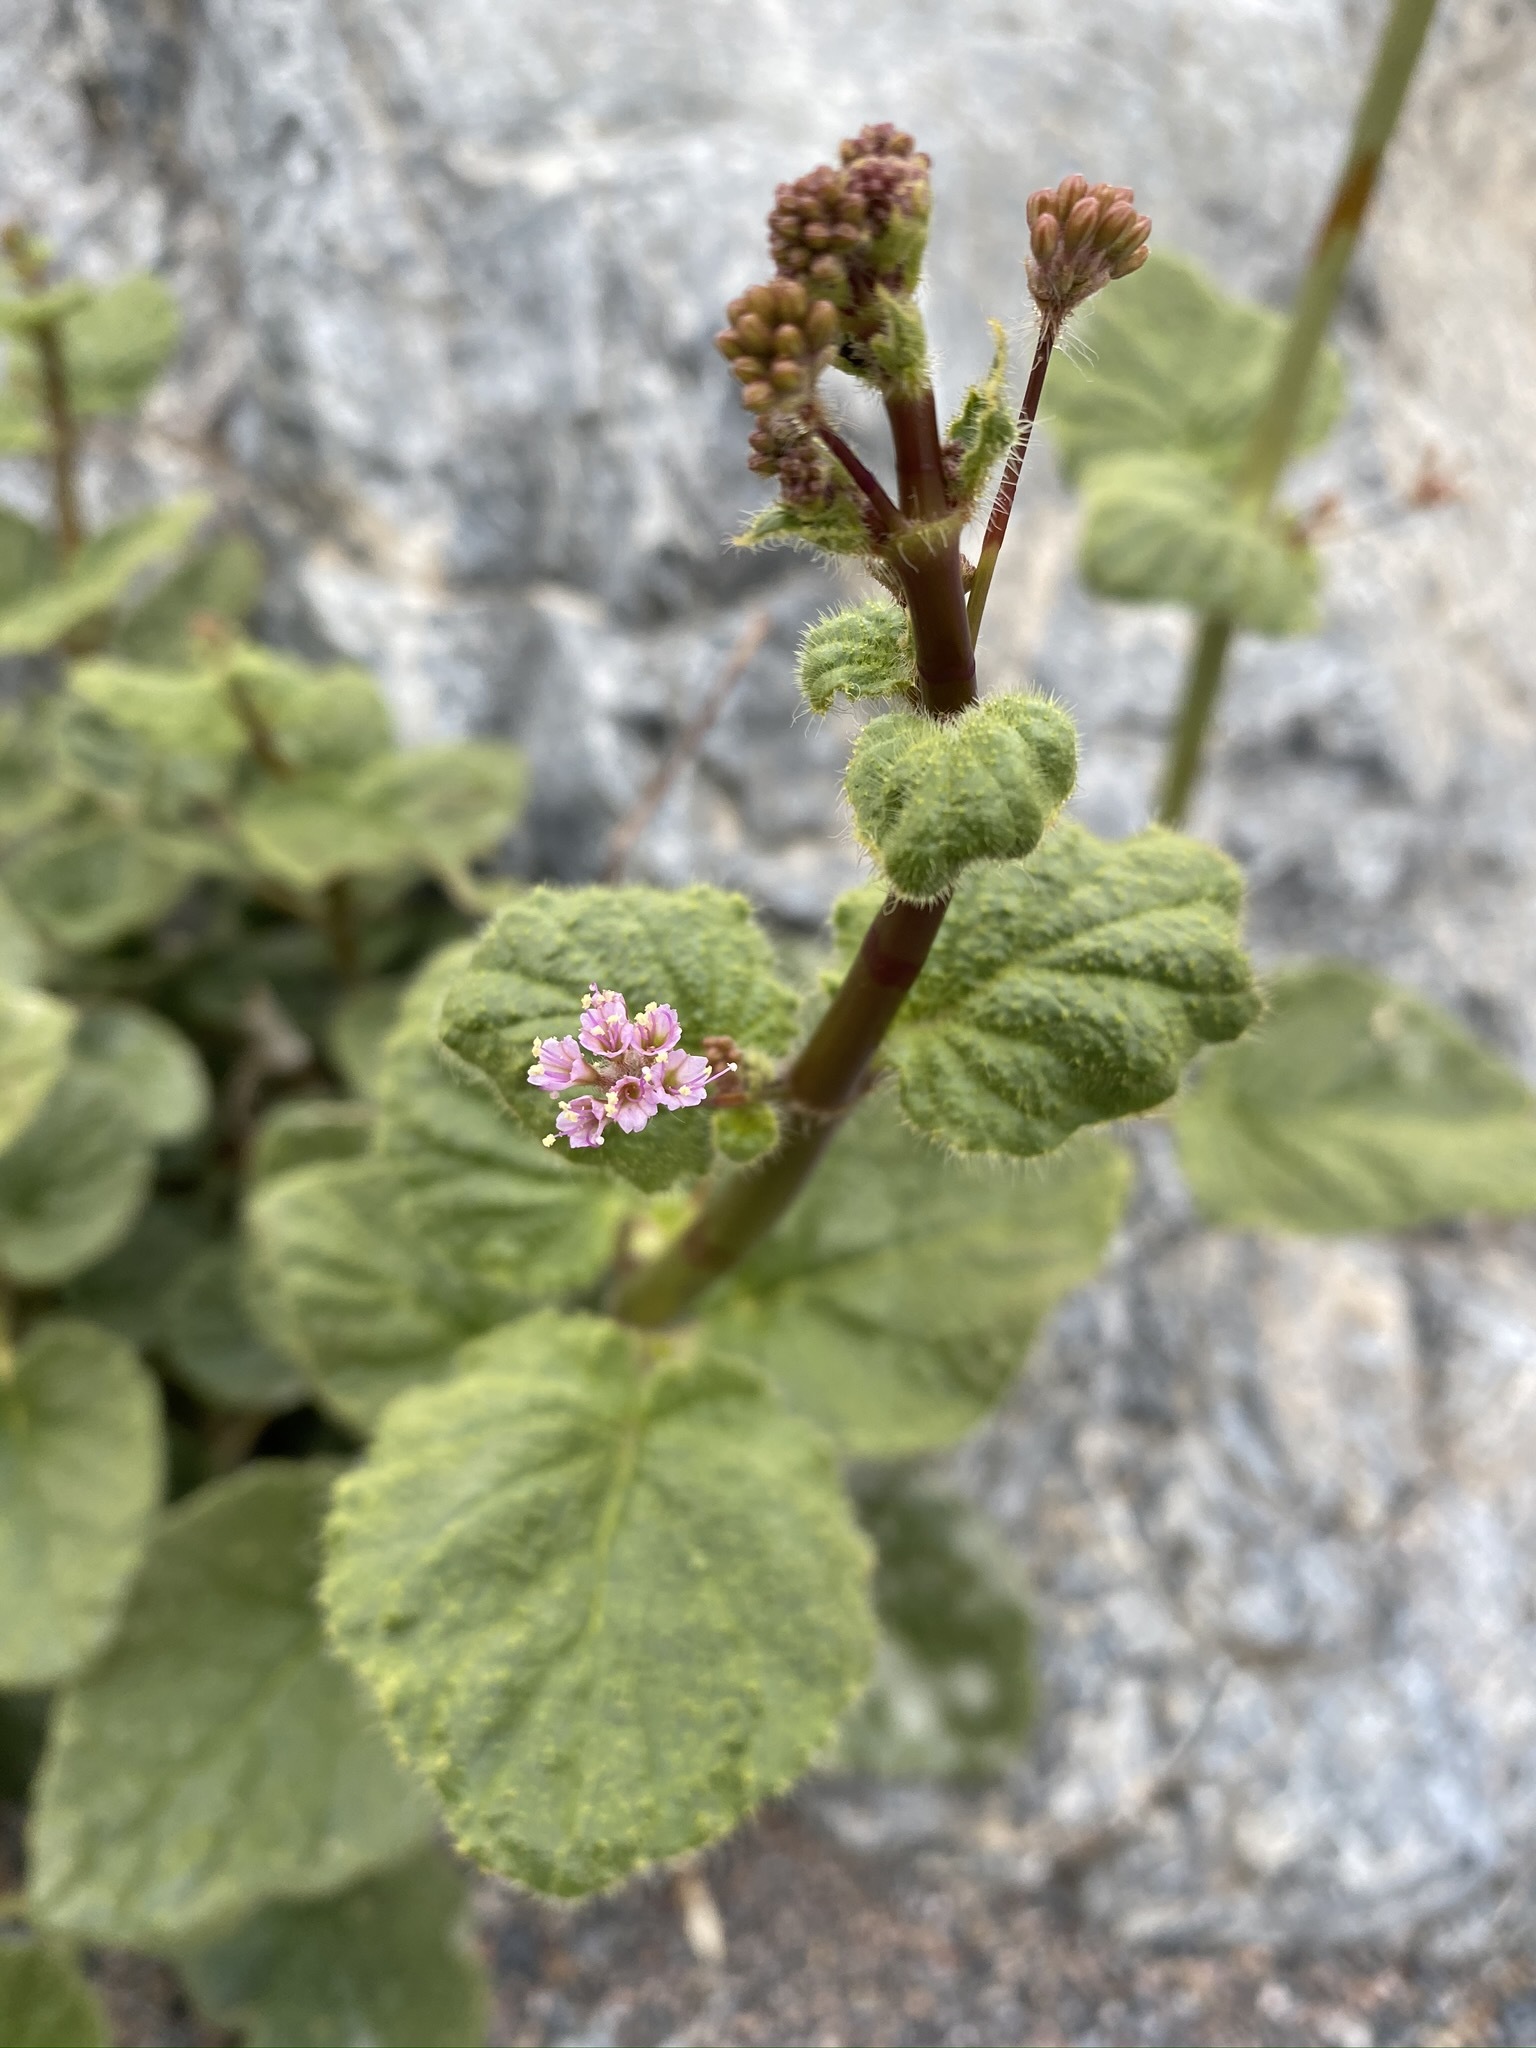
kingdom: Plantae
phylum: Tracheophyta
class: Magnoliopsida
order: Caryophyllales
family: Nyctaginaceae
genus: Anulocaulis
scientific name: Anulocaulis annulatus
